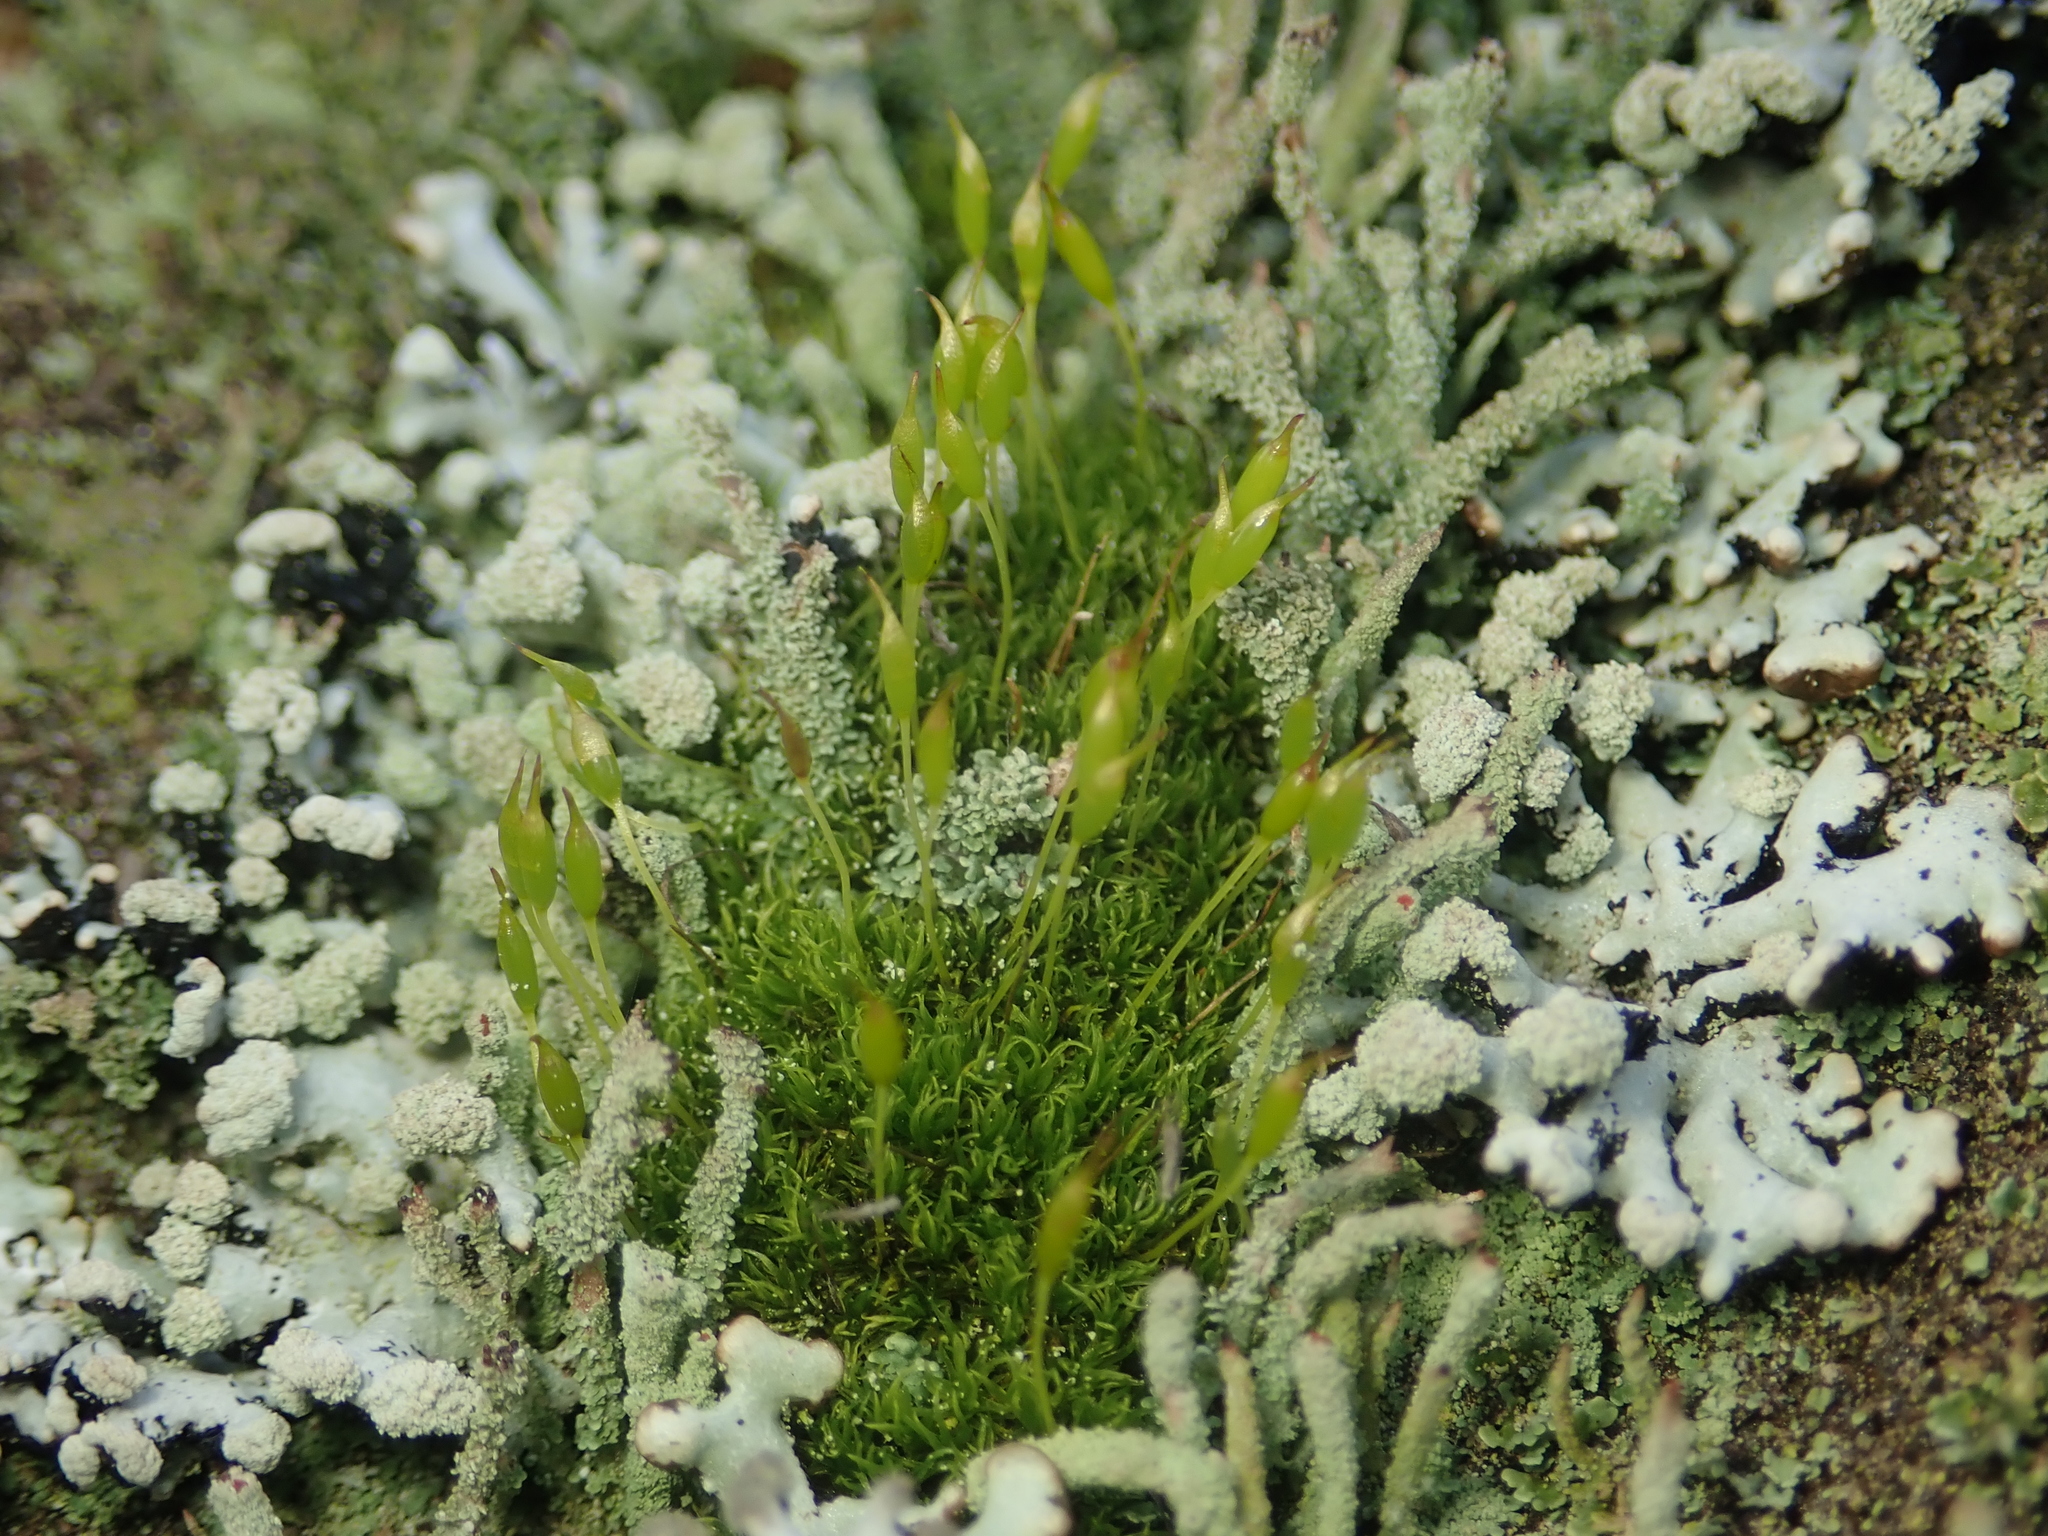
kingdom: Plantae
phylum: Bryophyta
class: Bryopsida
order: Dicranales
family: Rhabdoweisiaceae
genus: Dicranoweisia
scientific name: Dicranoweisia cirrata
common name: Common pincushion
